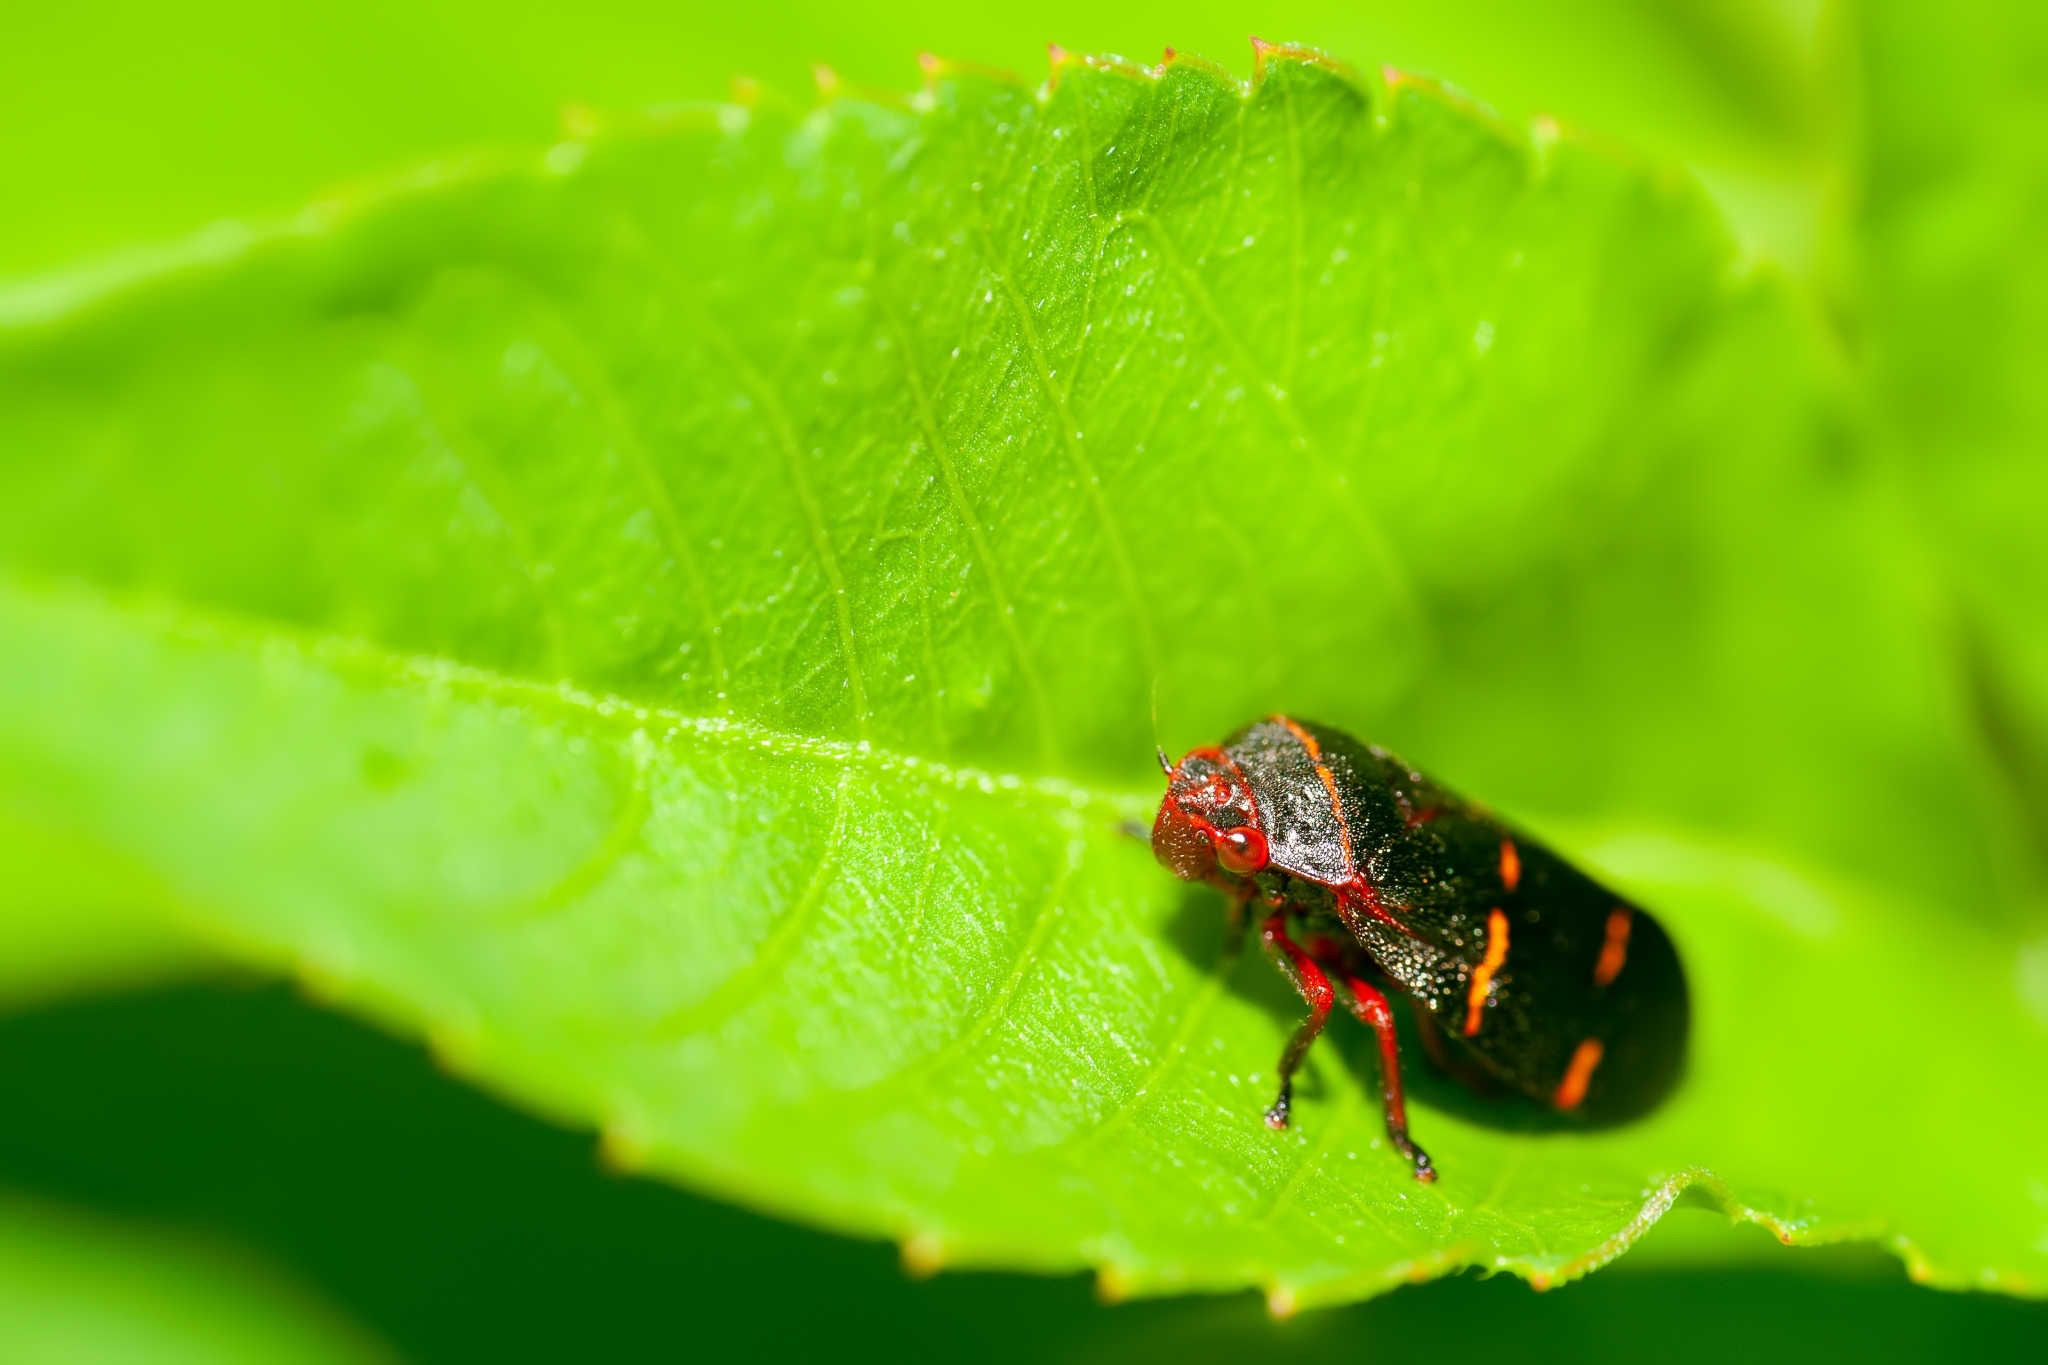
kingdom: Animalia
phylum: Arthropoda
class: Insecta
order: Hemiptera
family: Cercopidae
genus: Prosapia
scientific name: Prosapia bicincta
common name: Twolined spittlebug
